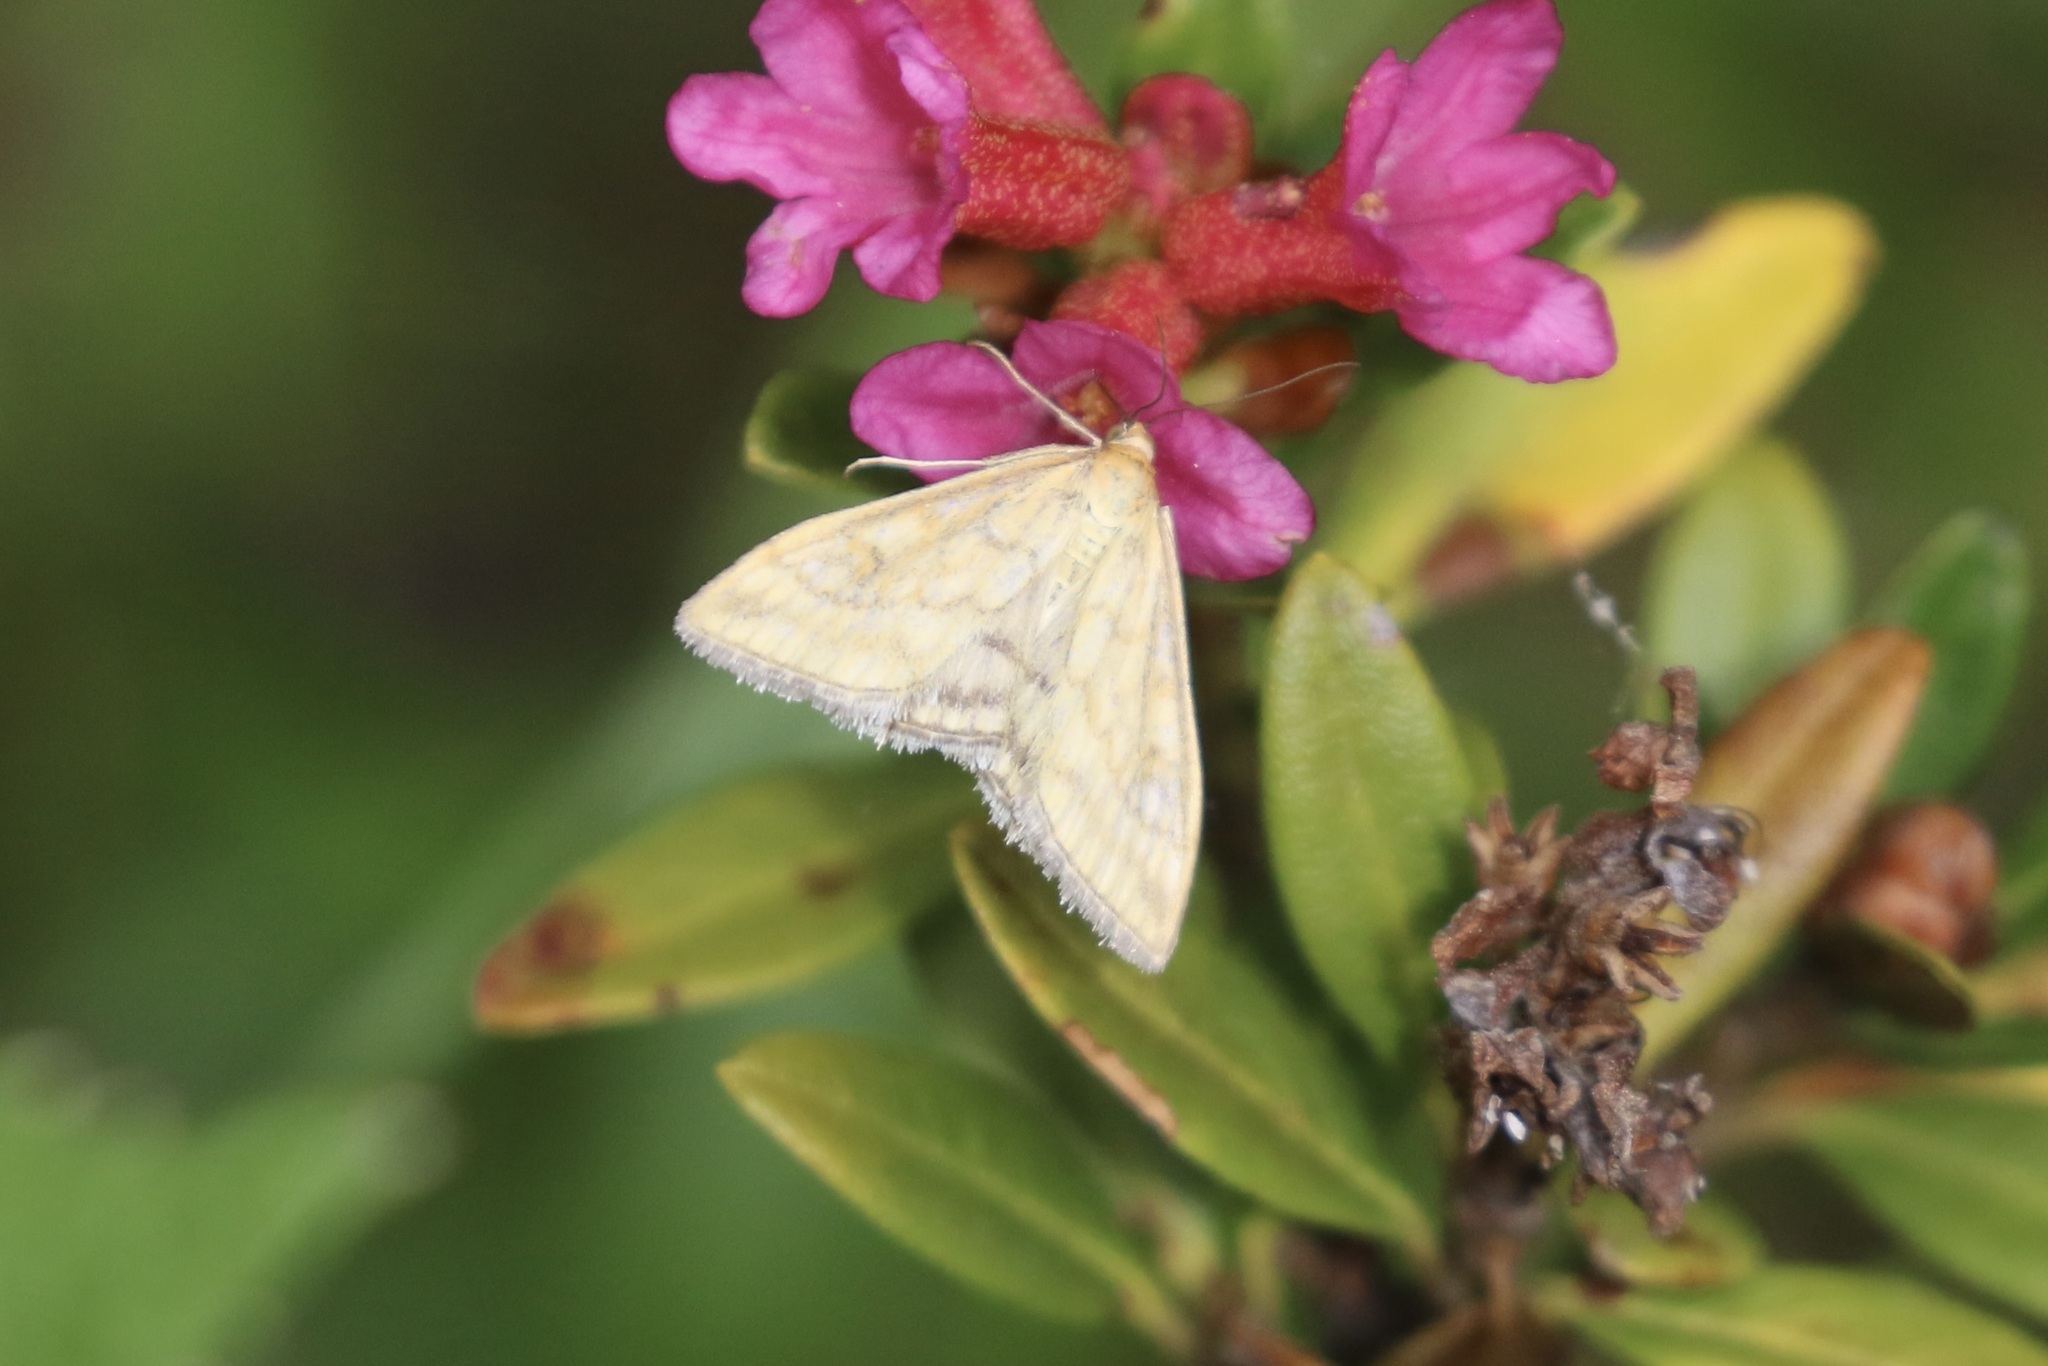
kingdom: Animalia
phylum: Arthropoda
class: Insecta
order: Lepidoptera
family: Crambidae
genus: Sitochroa
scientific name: Sitochroa verticalis
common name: Lesser pearl
